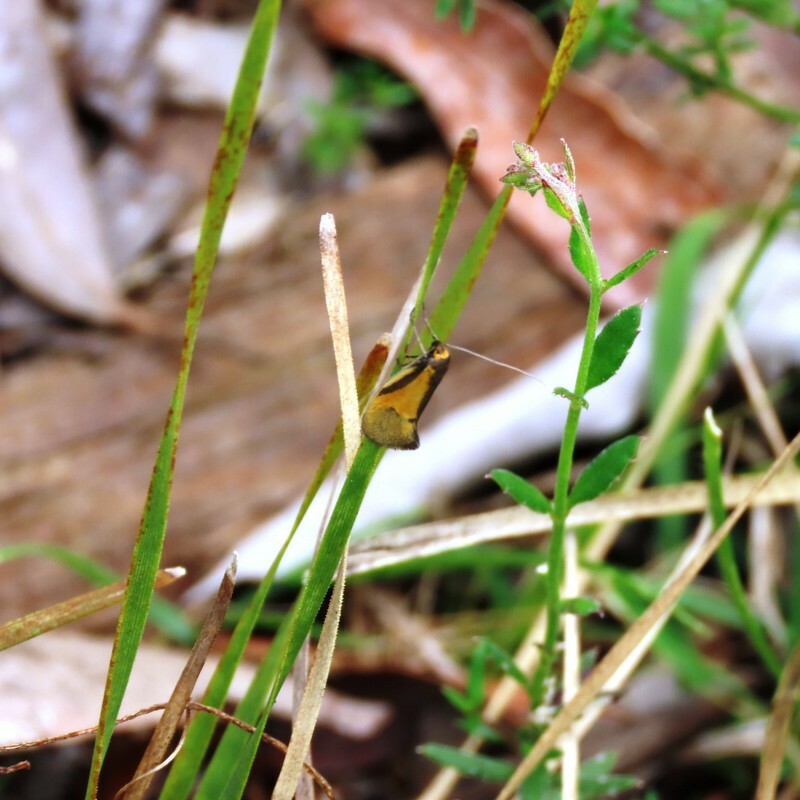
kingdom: Animalia
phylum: Arthropoda
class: Insecta
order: Lepidoptera
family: Oecophoridae
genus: Philobota
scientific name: Philobota arabella
